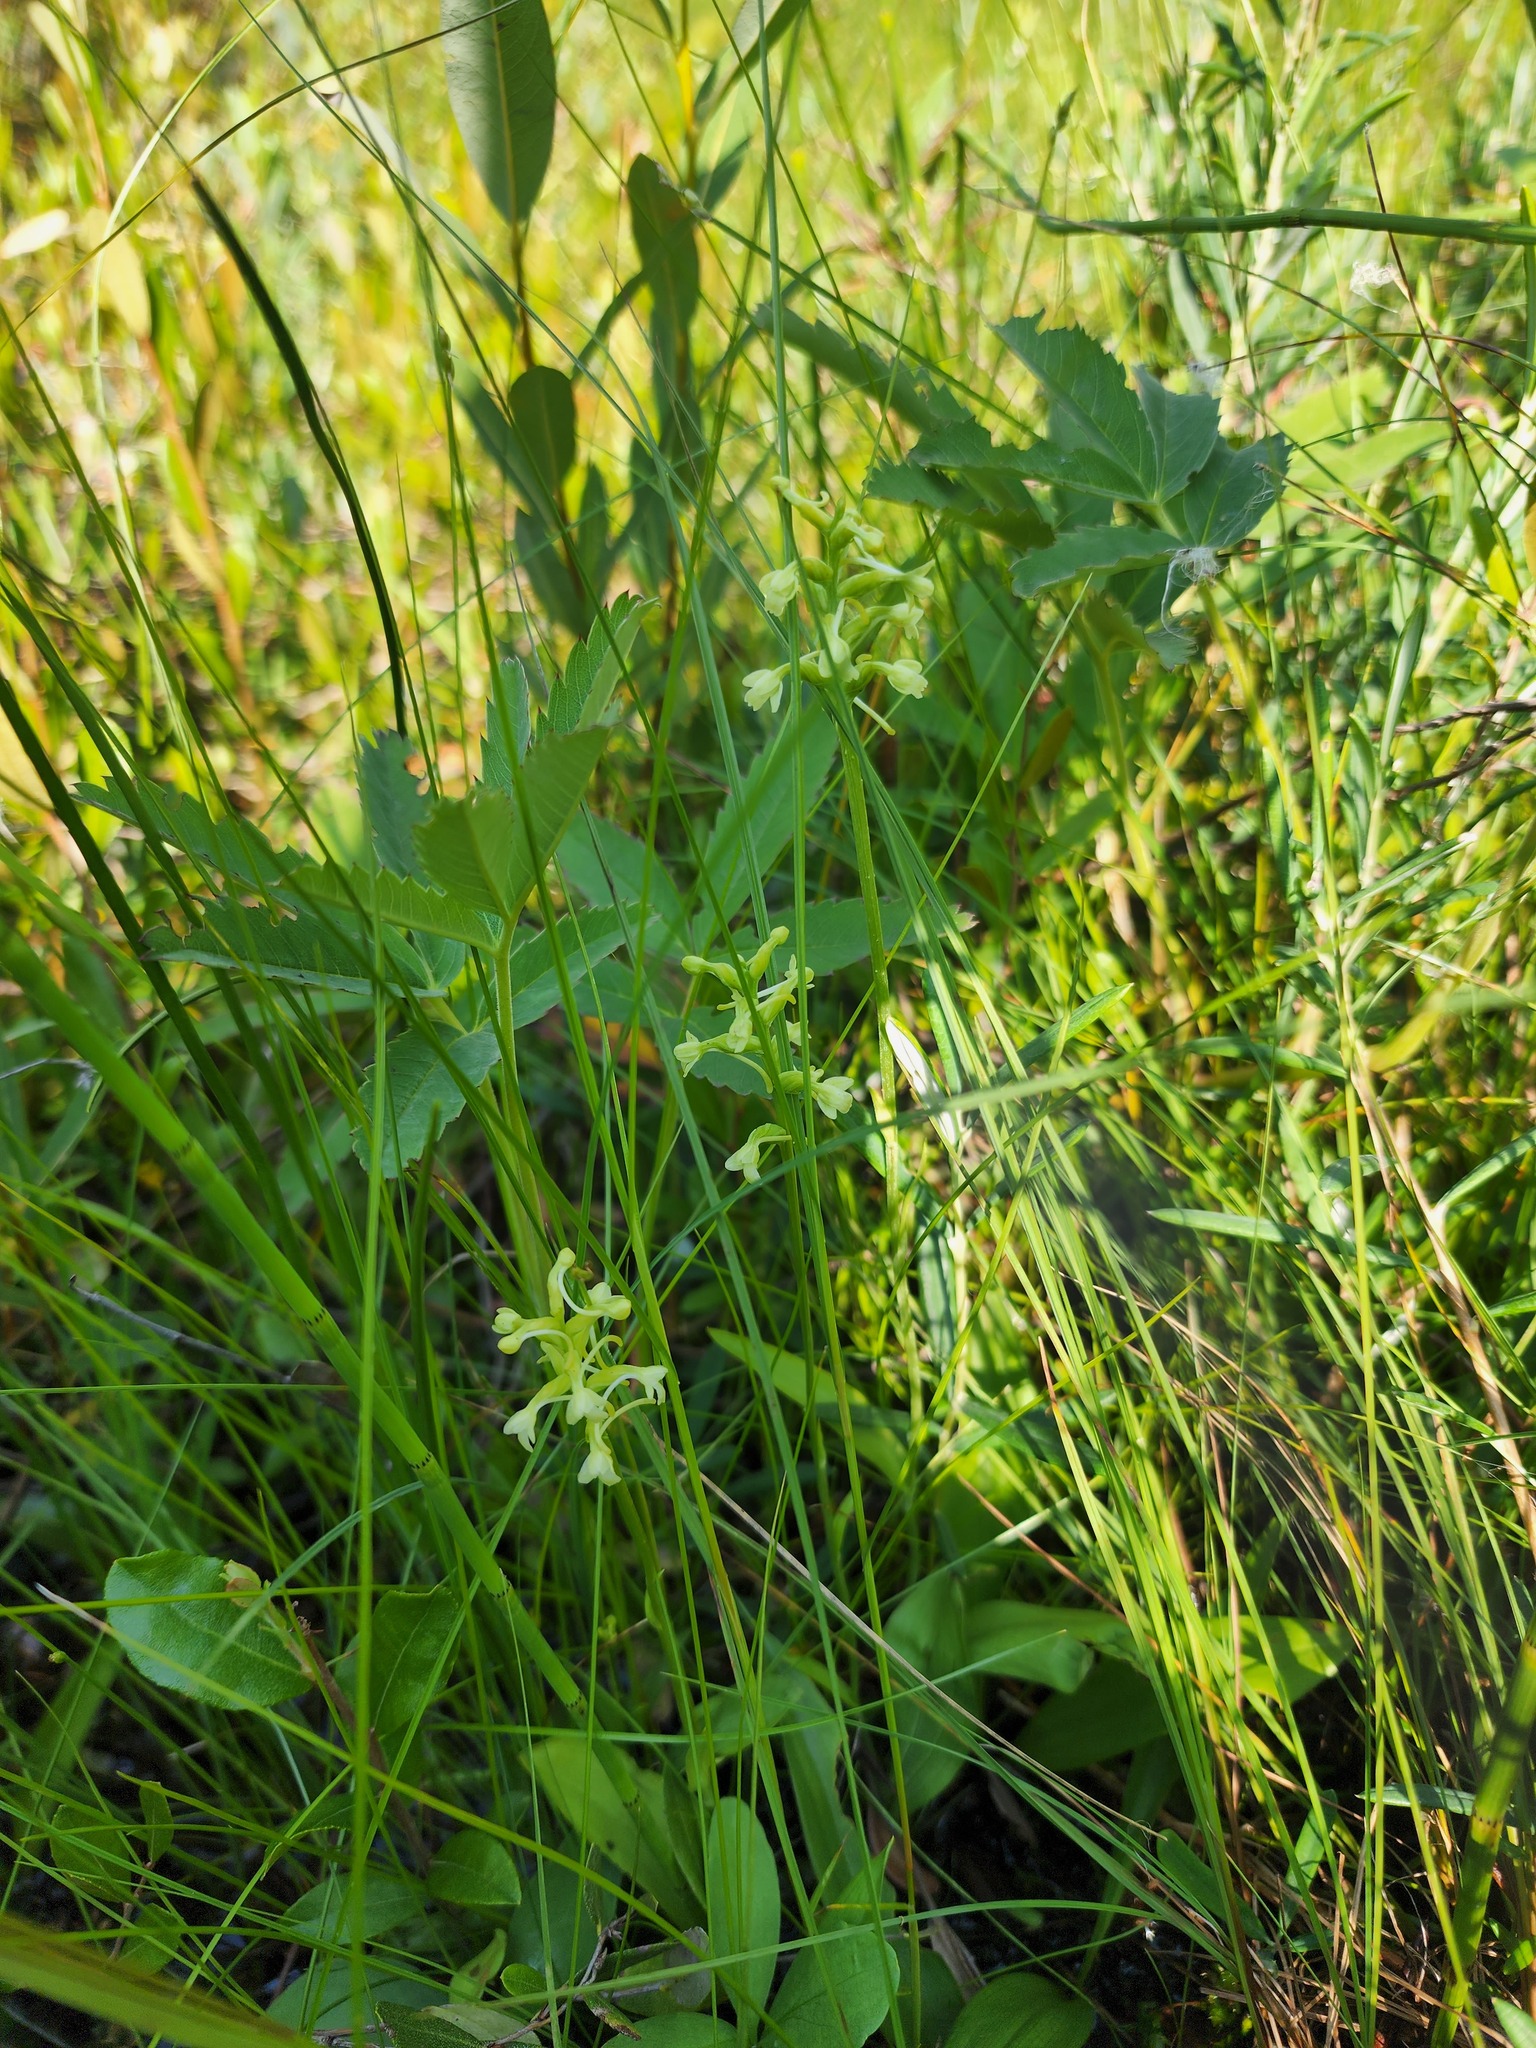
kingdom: Plantae
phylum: Tracheophyta
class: Liliopsida
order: Asparagales
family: Orchidaceae
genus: Platanthera
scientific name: Platanthera clavellata
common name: Club-spur orchid
